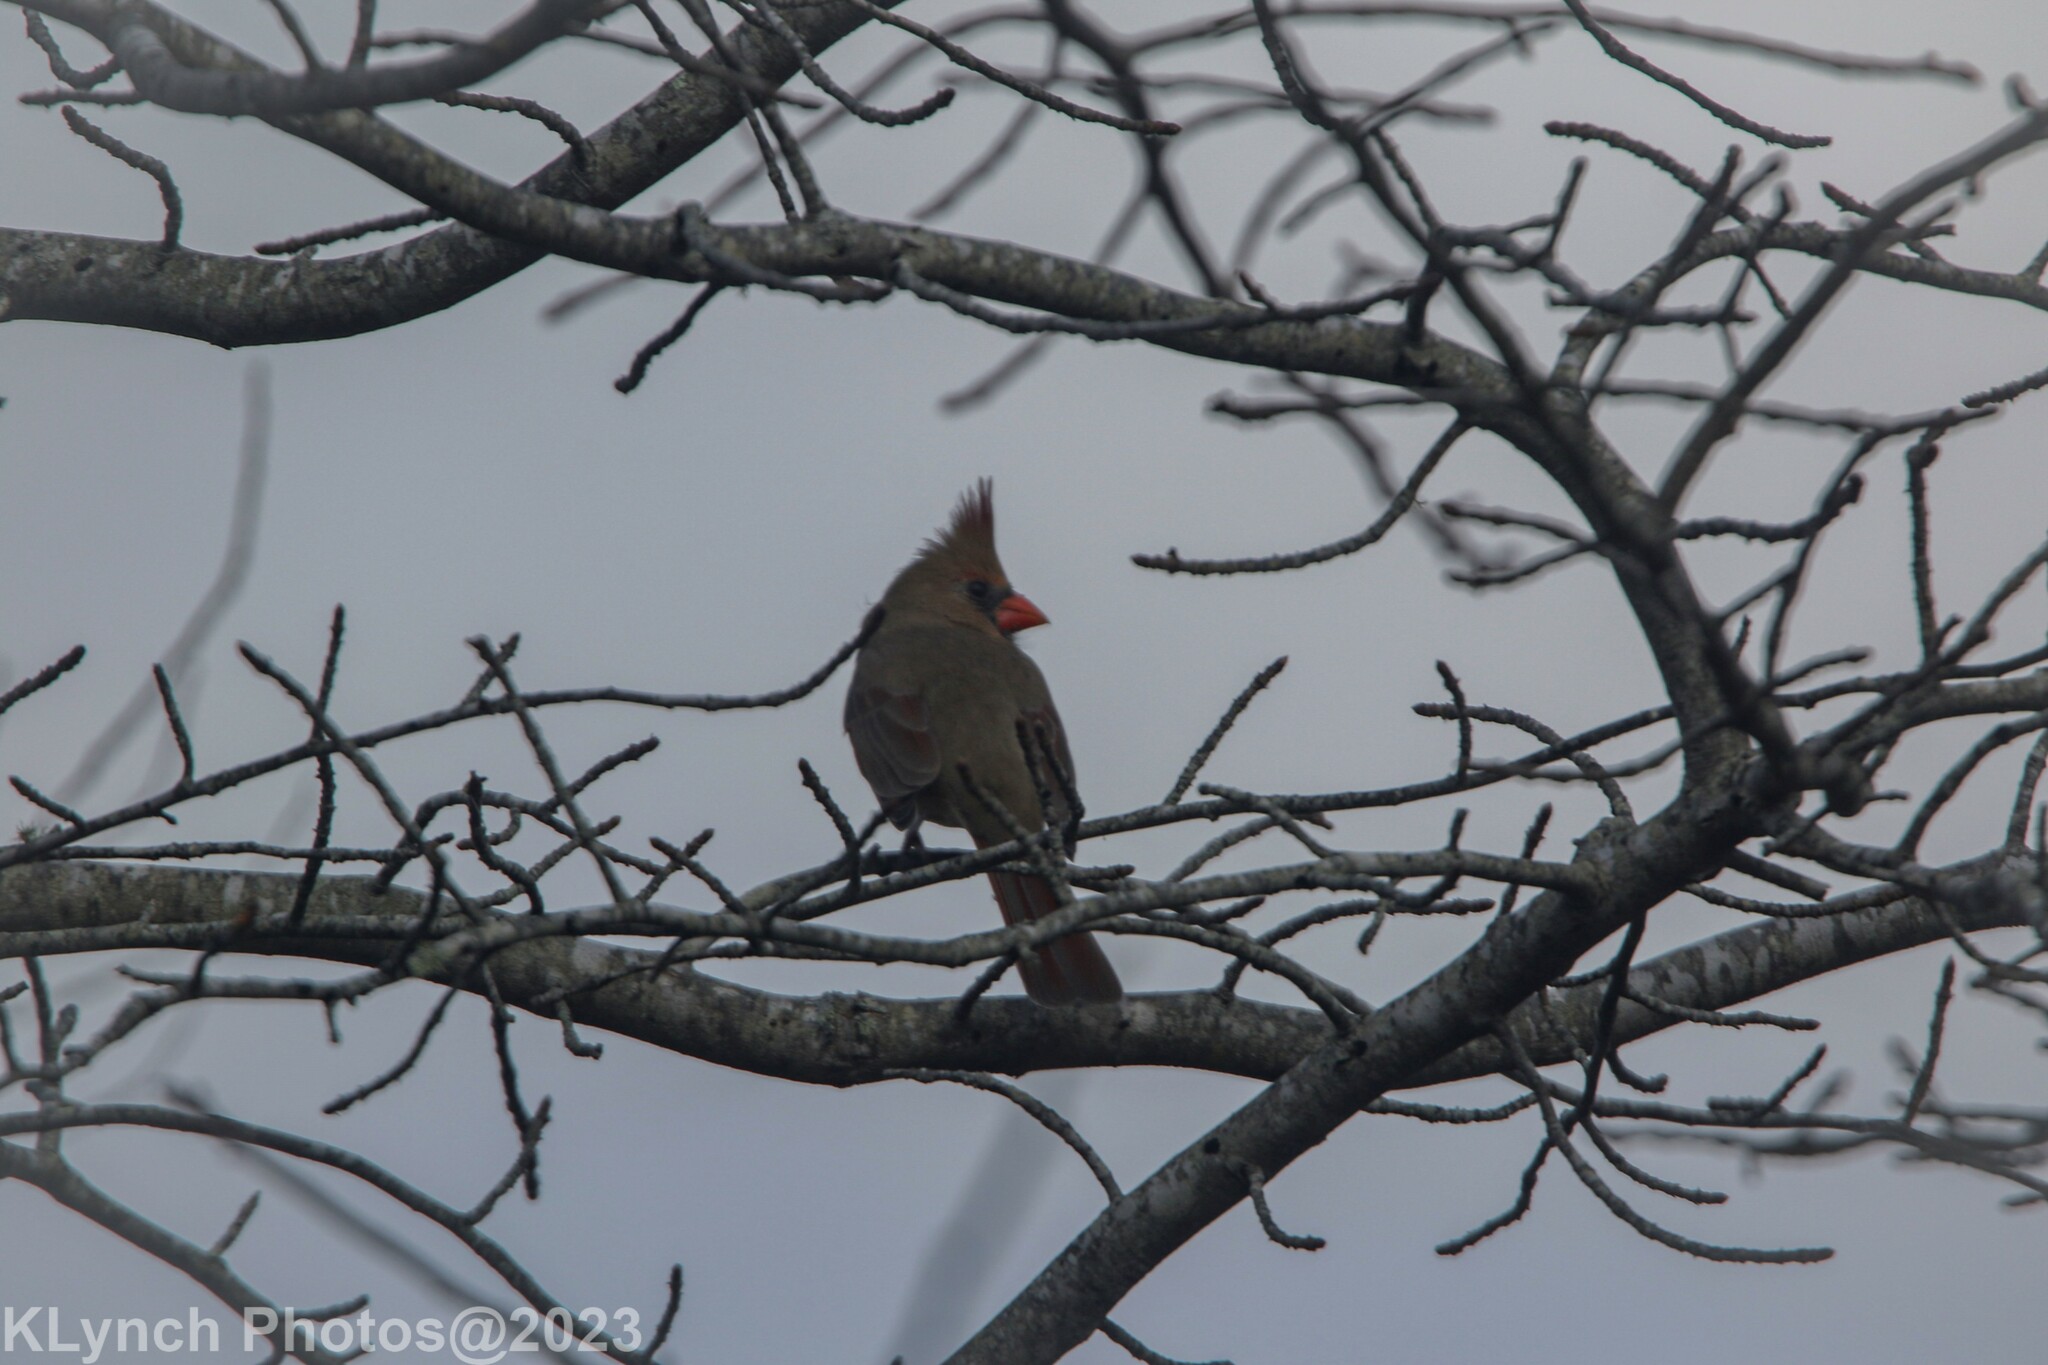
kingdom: Animalia
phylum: Chordata
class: Aves
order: Passeriformes
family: Cardinalidae
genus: Cardinalis
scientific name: Cardinalis cardinalis
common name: Northern cardinal
